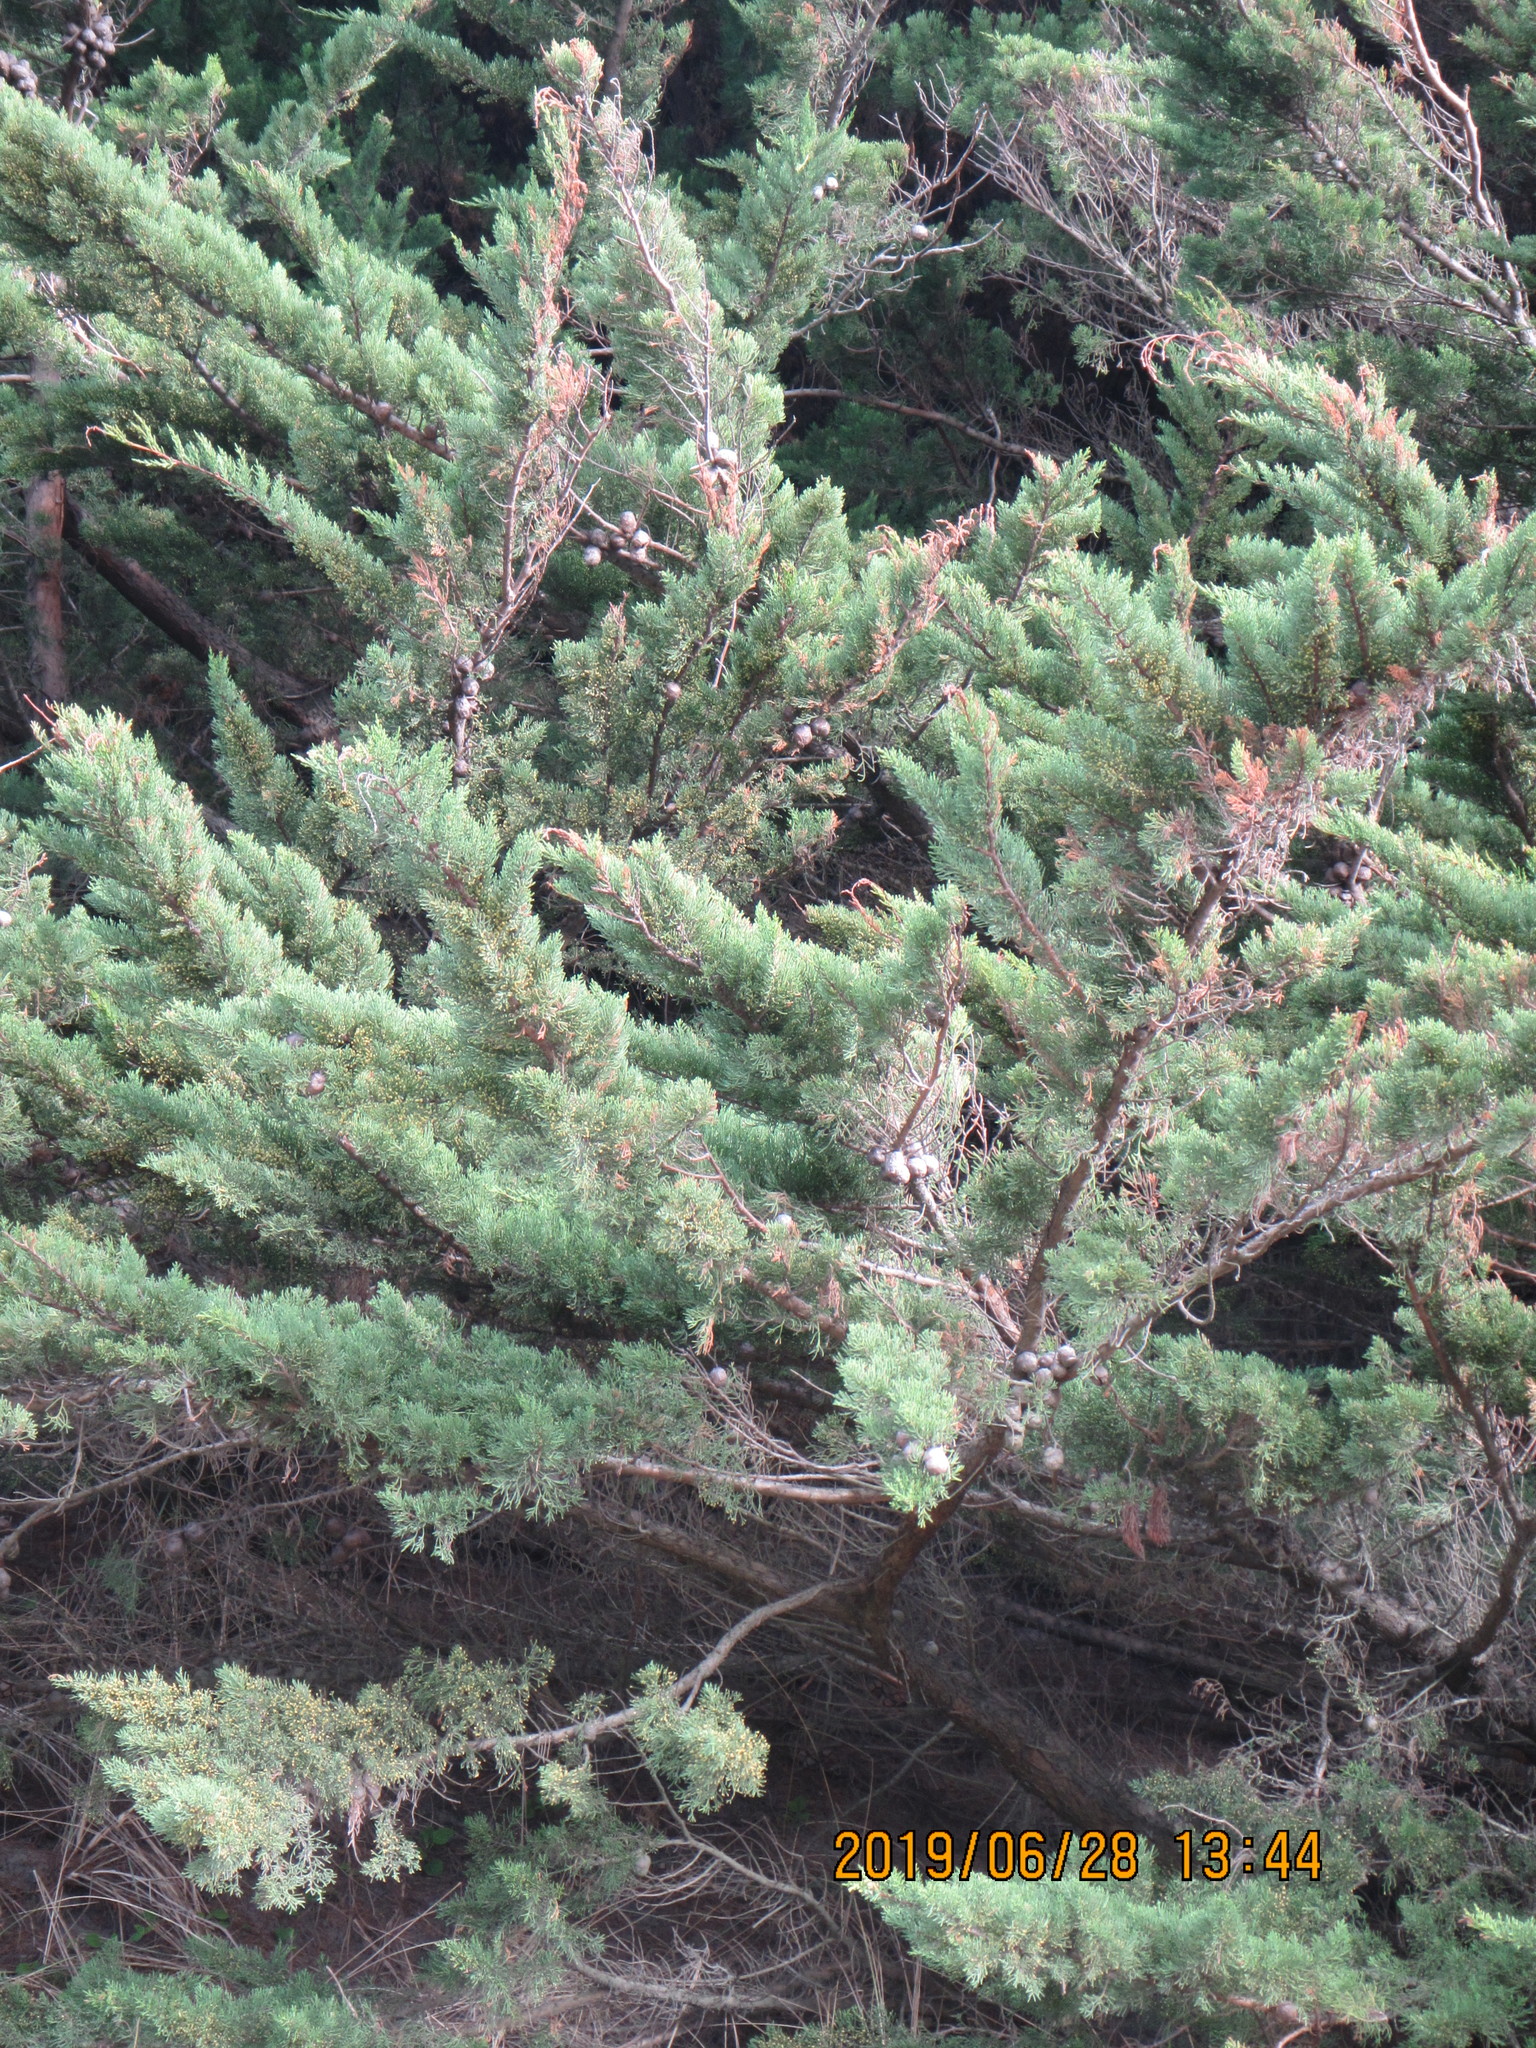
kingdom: Plantae
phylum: Tracheophyta
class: Pinopsida
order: Pinales
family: Cupressaceae
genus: Cupressus
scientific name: Cupressus macrocarpa
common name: Monterey cypress
